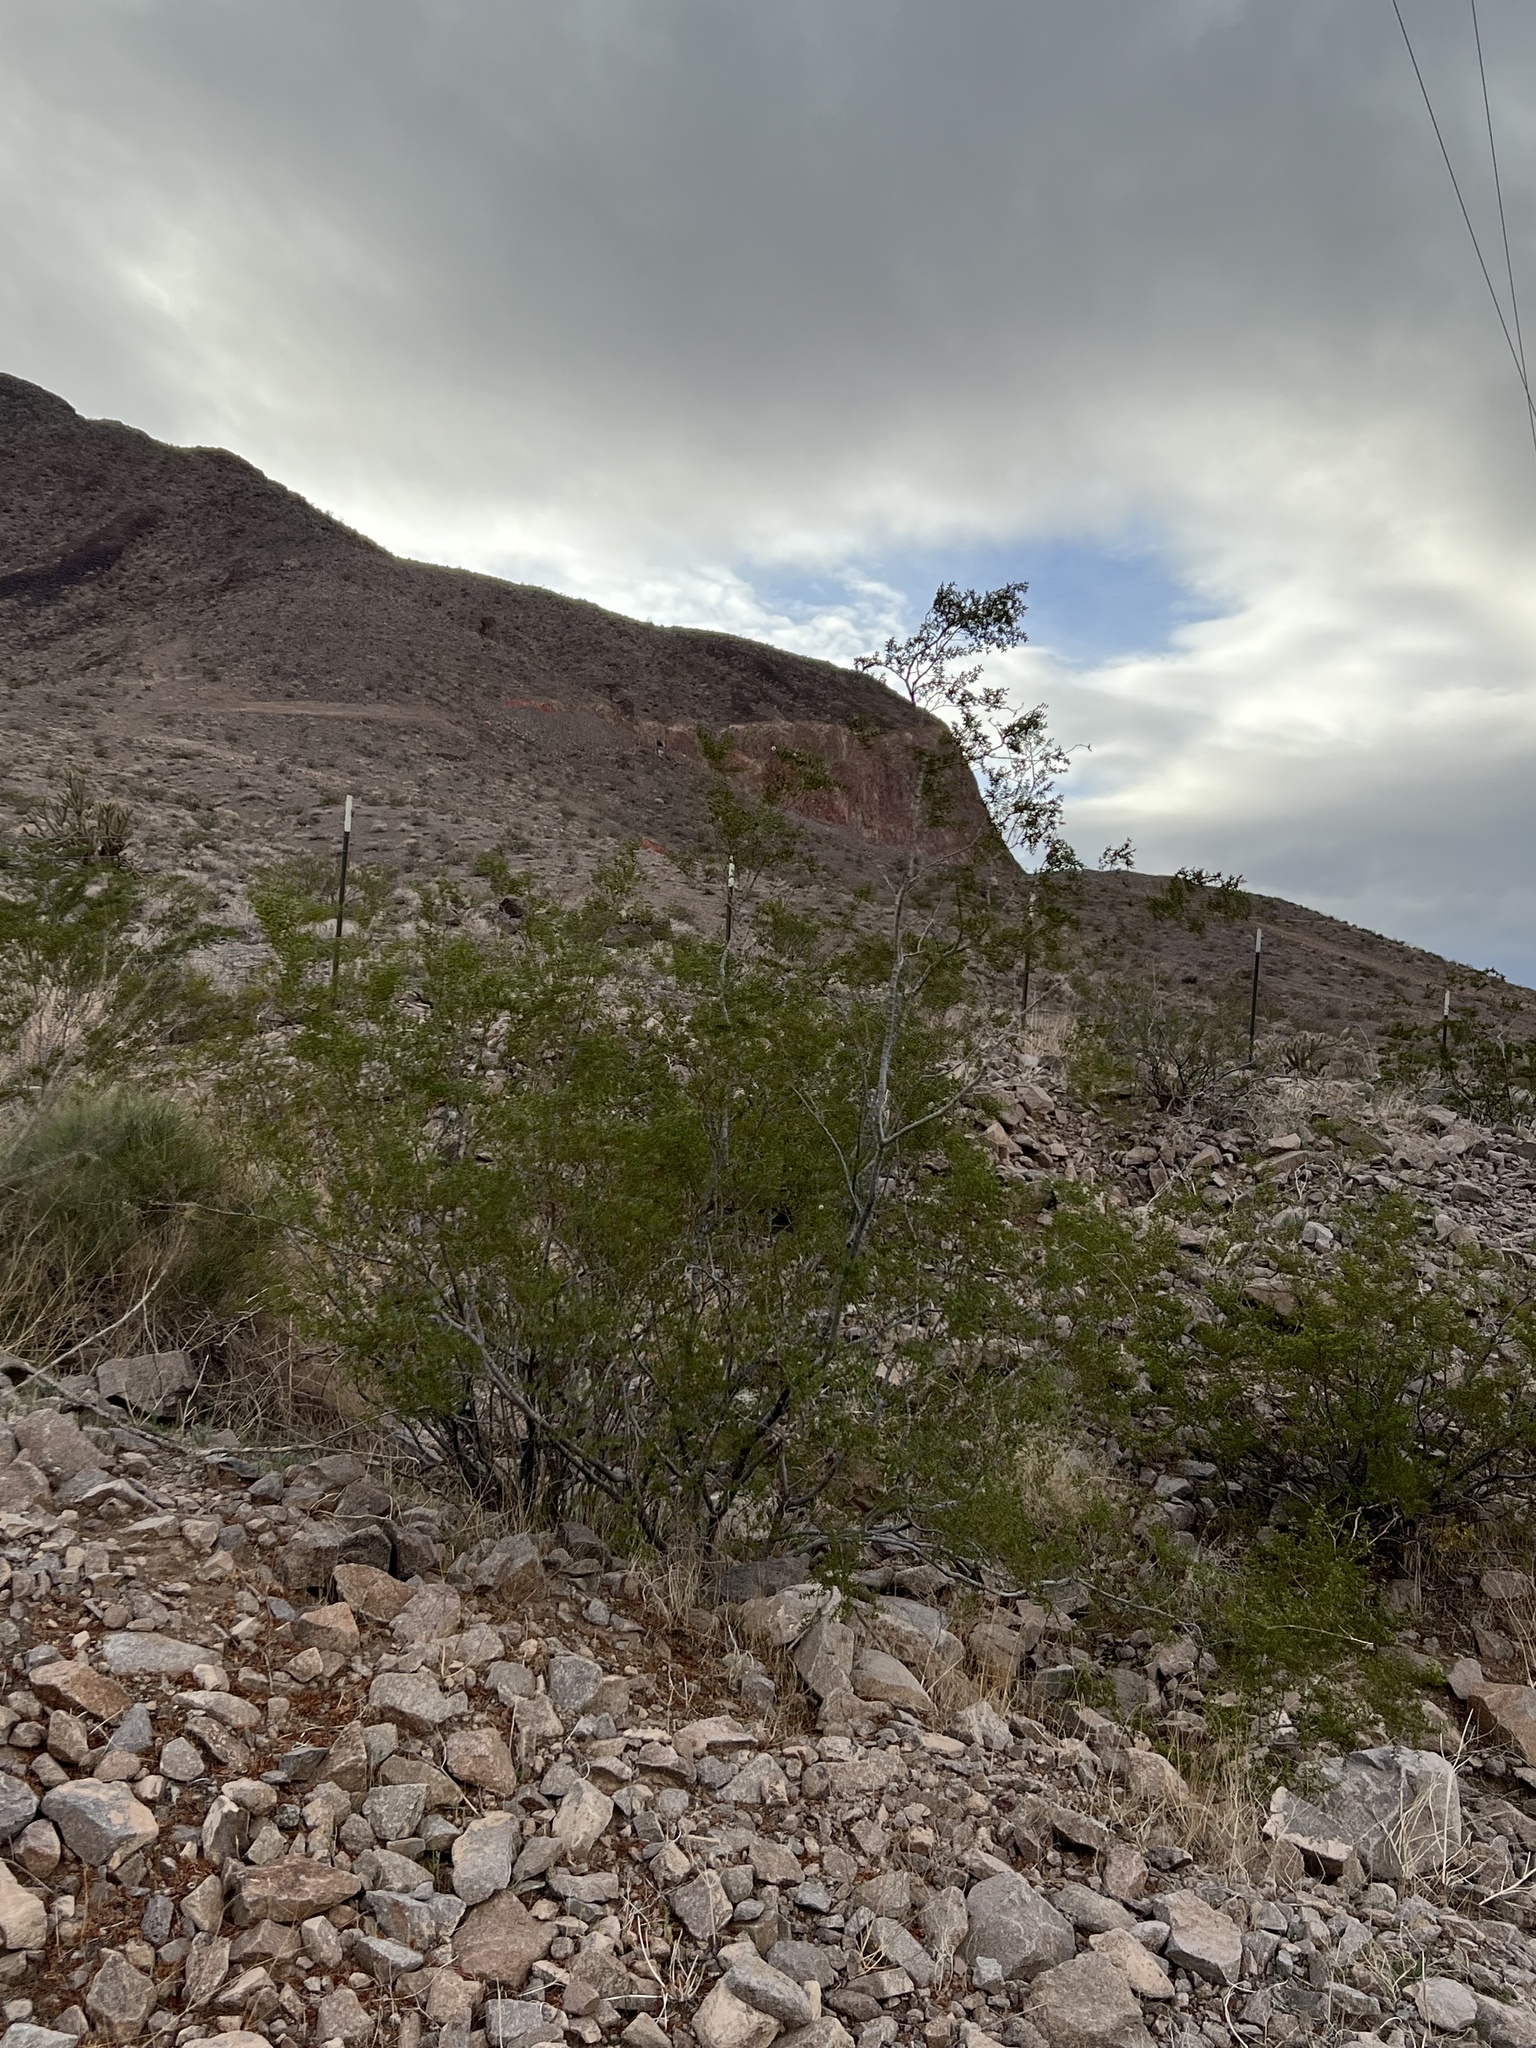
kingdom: Plantae
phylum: Tracheophyta
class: Magnoliopsida
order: Zygophyllales
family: Zygophyllaceae
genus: Larrea
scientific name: Larrea tridentata
